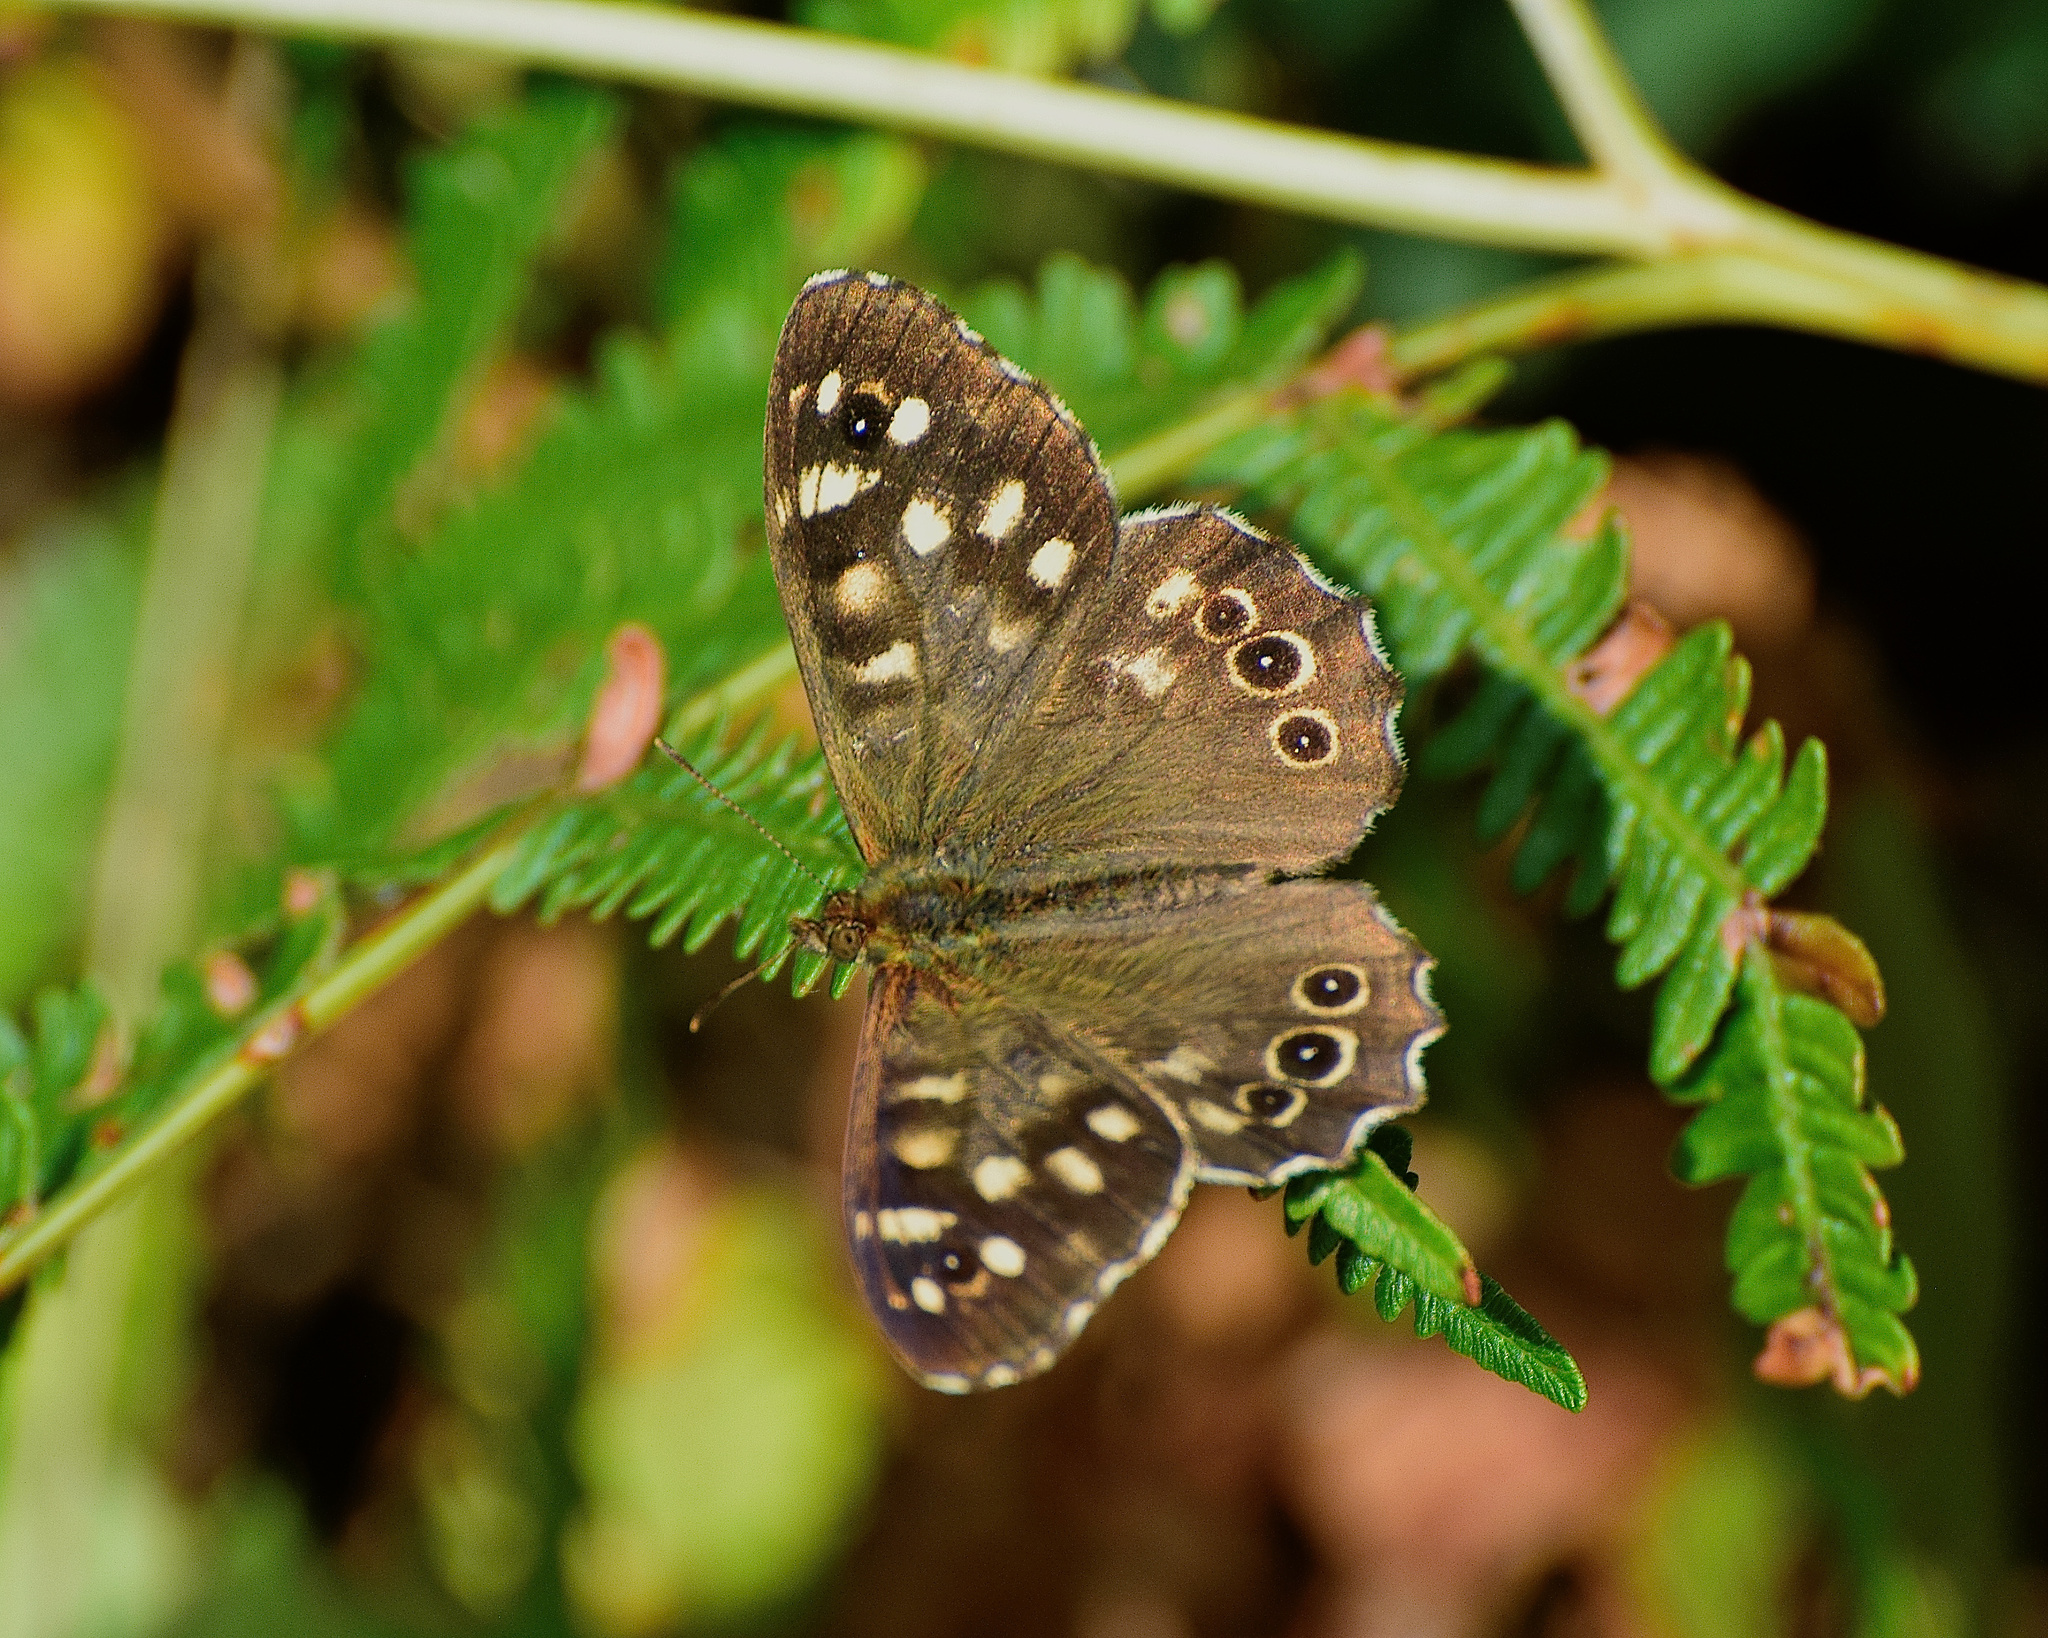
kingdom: Animalia
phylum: Arthropoda
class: Insecta
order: Lepidoptera
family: Nymphalidae
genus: Pararge
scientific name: Pararge aegeria
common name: Speckled wood
